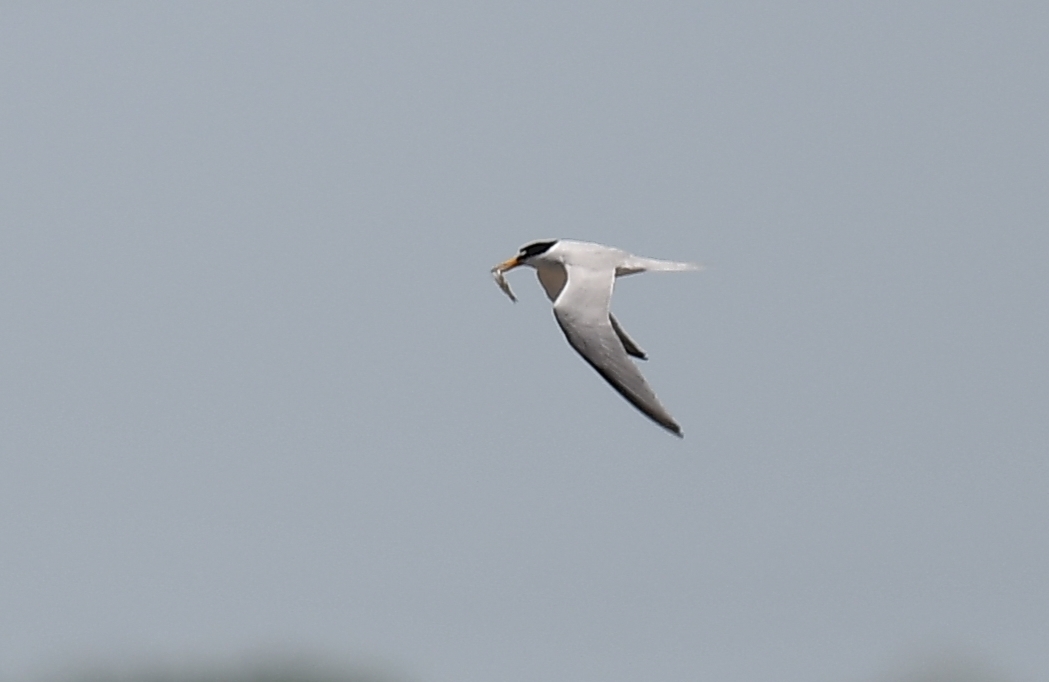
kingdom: Animalia
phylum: Chordata
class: Aves
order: Charadriiformes
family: Laridae
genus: Sternula
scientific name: Sternula antillarum
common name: Least tern
